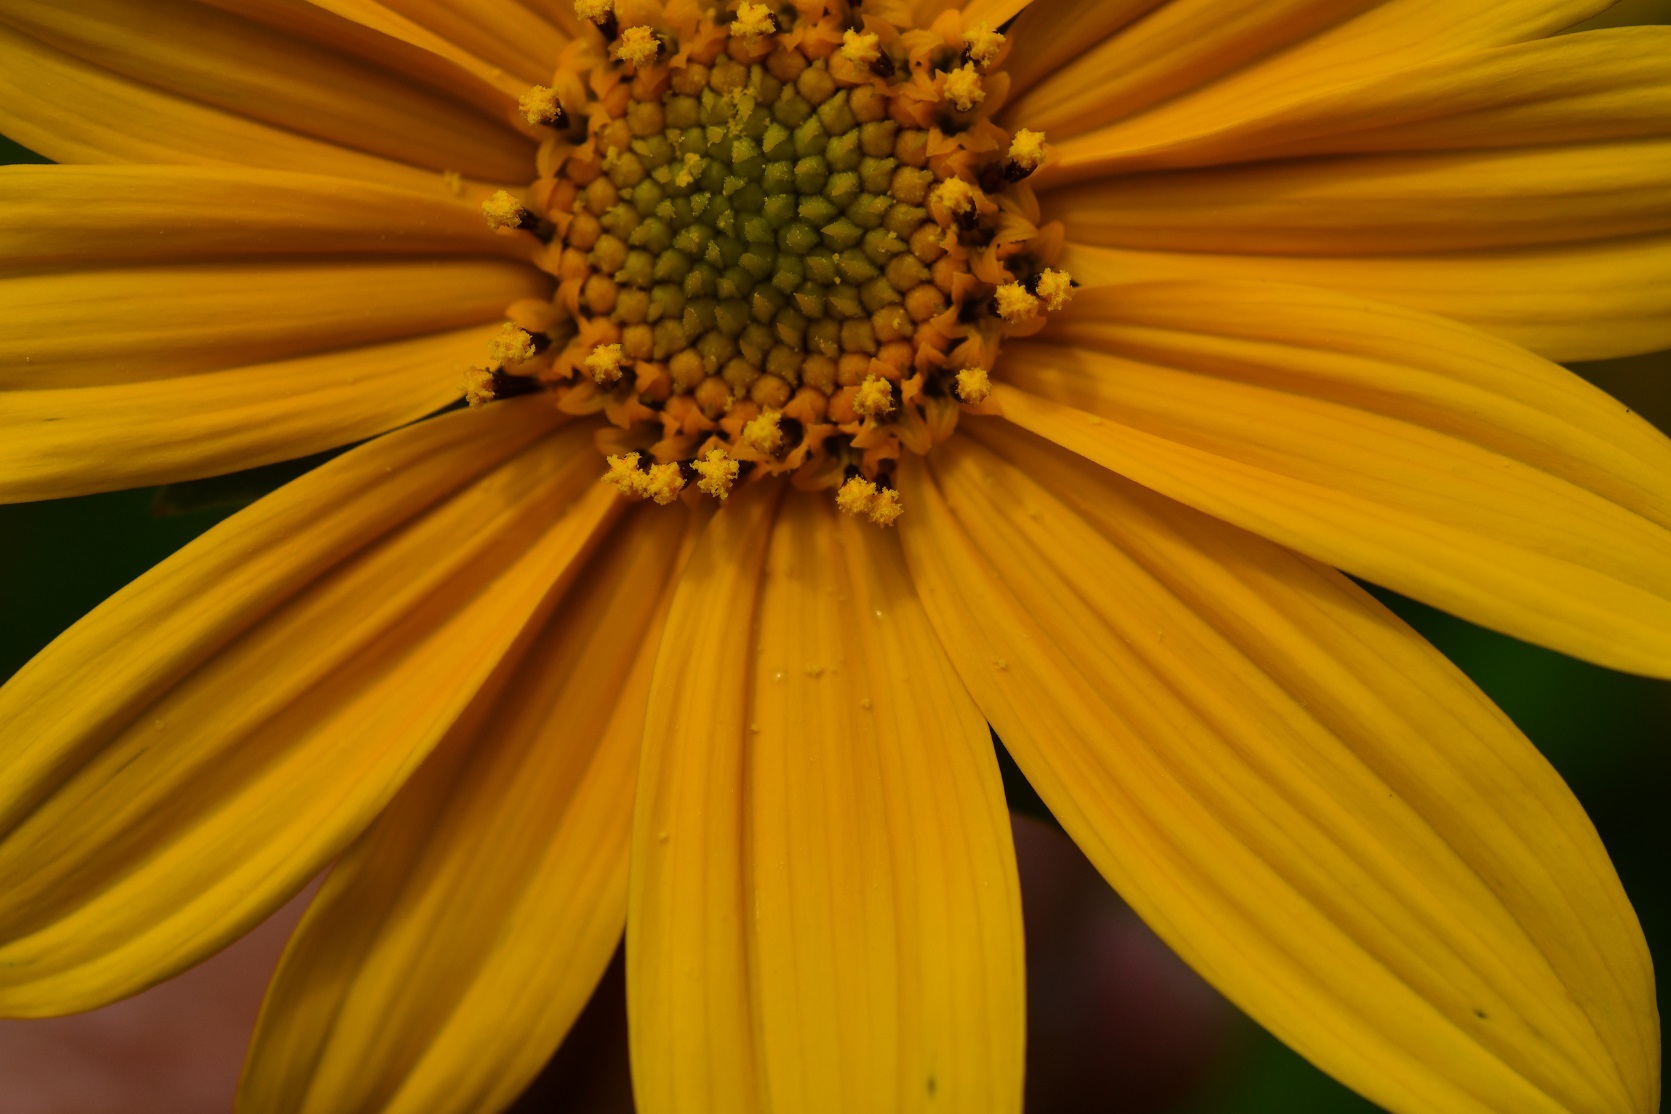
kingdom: Plantae
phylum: Tracheophyta
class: Magnoliopsida
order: Asterales
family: Asteraceae
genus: Tithonia
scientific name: Tithonia tubaeformis
